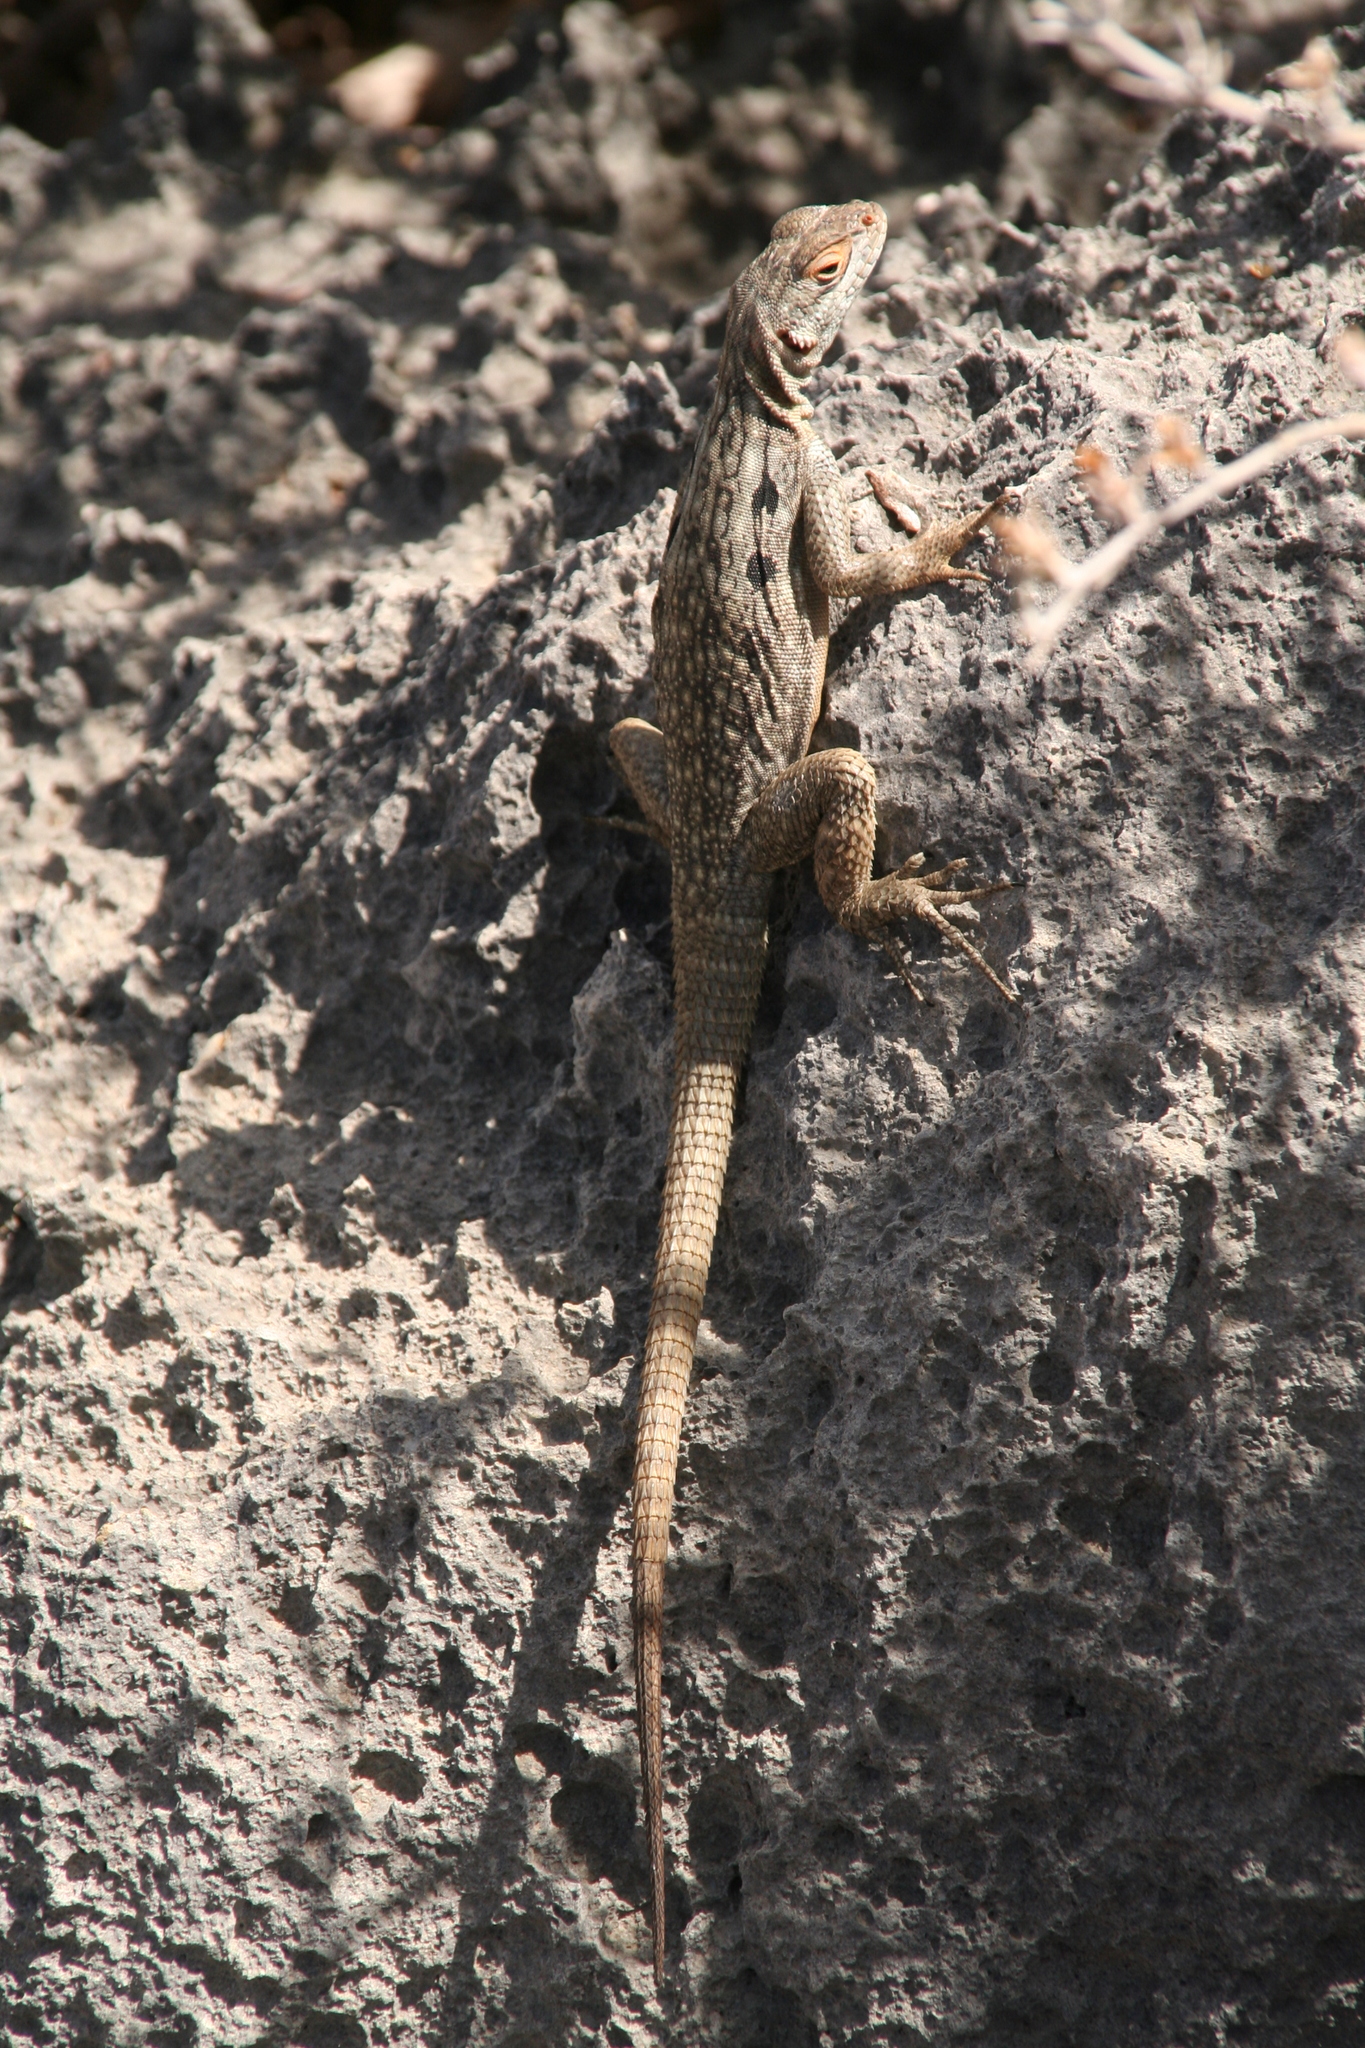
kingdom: Animalia
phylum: Chordata
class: Squamata
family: Opluridae
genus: Oplurus
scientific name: Oplurus quadrimaculatus
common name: Duméril's madagascar swift
